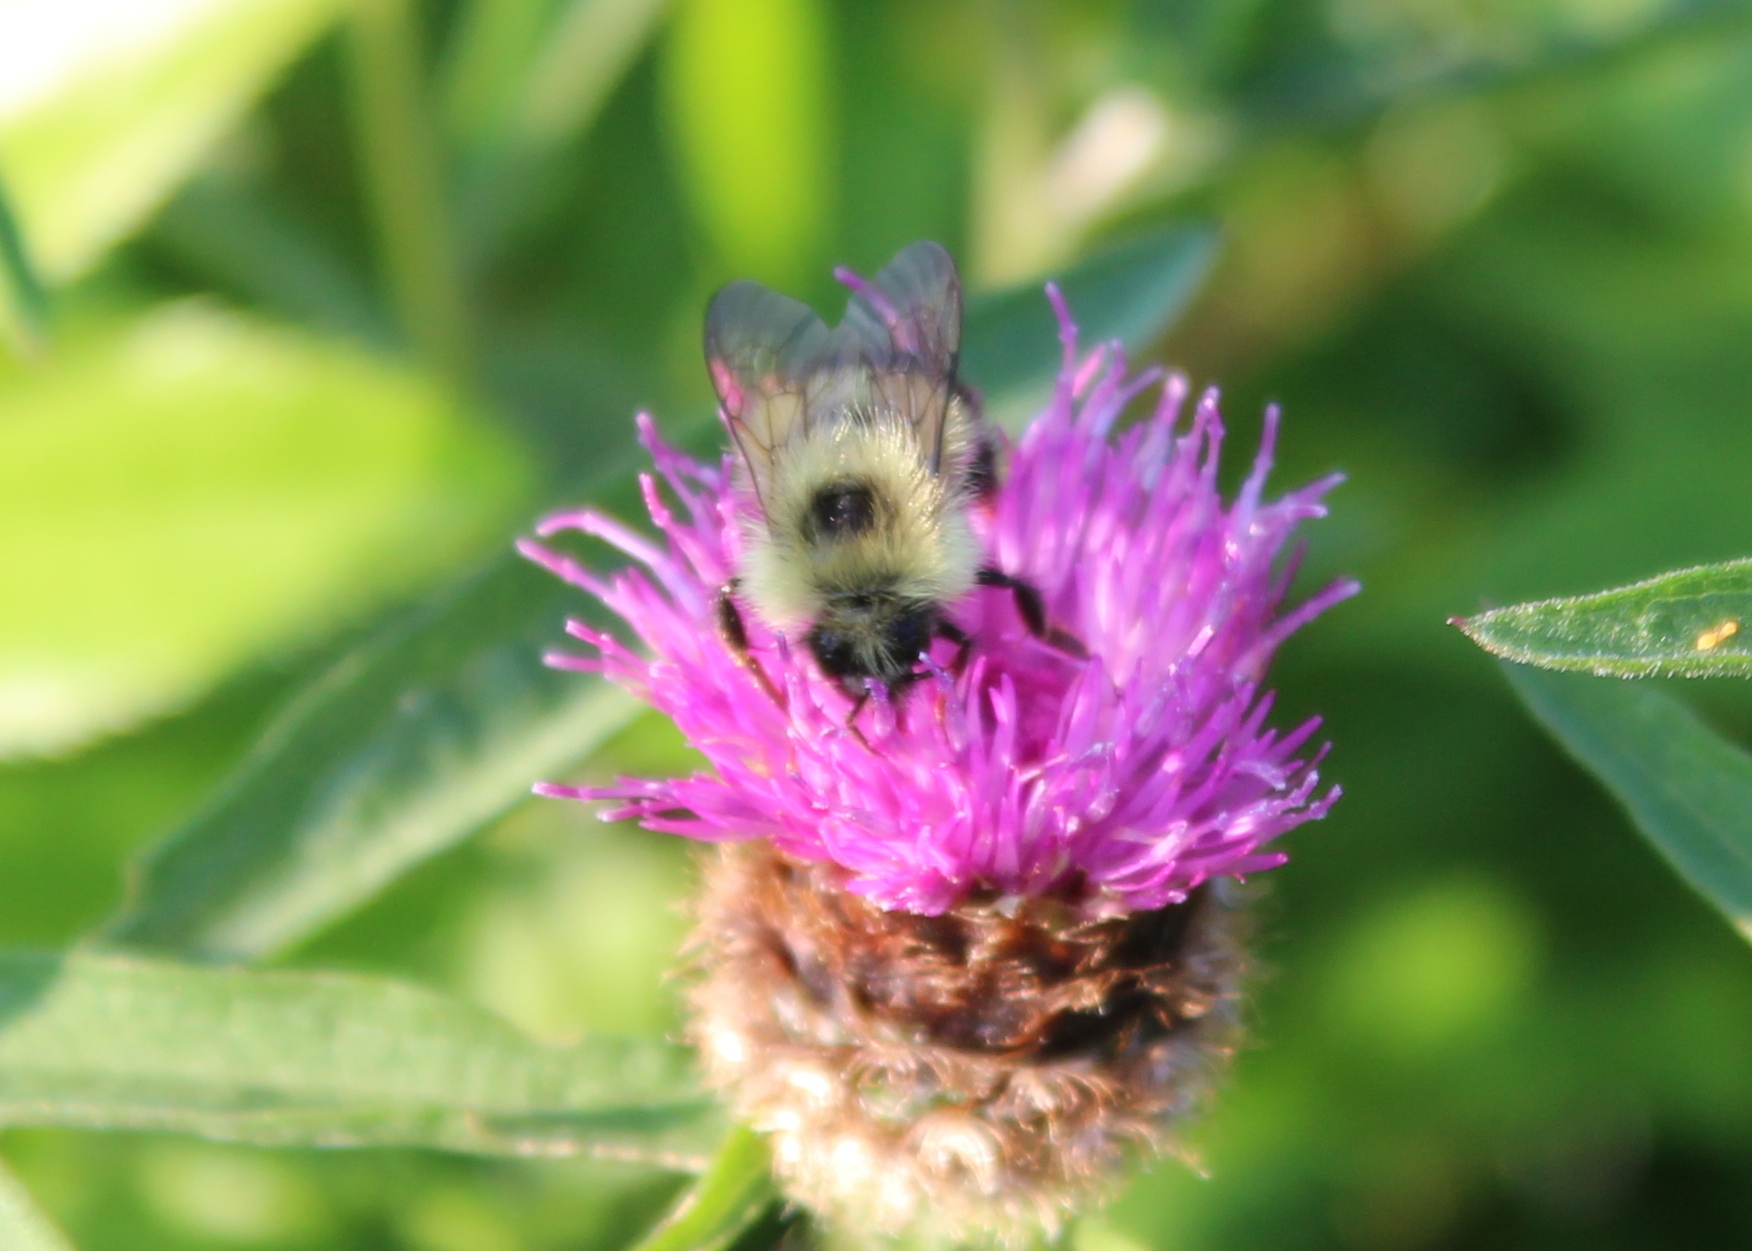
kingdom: Animalia
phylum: Arthropoda
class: Insecta
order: Hymenoptera
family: Apidae
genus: Pyrobombus
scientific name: Pyrobombus
